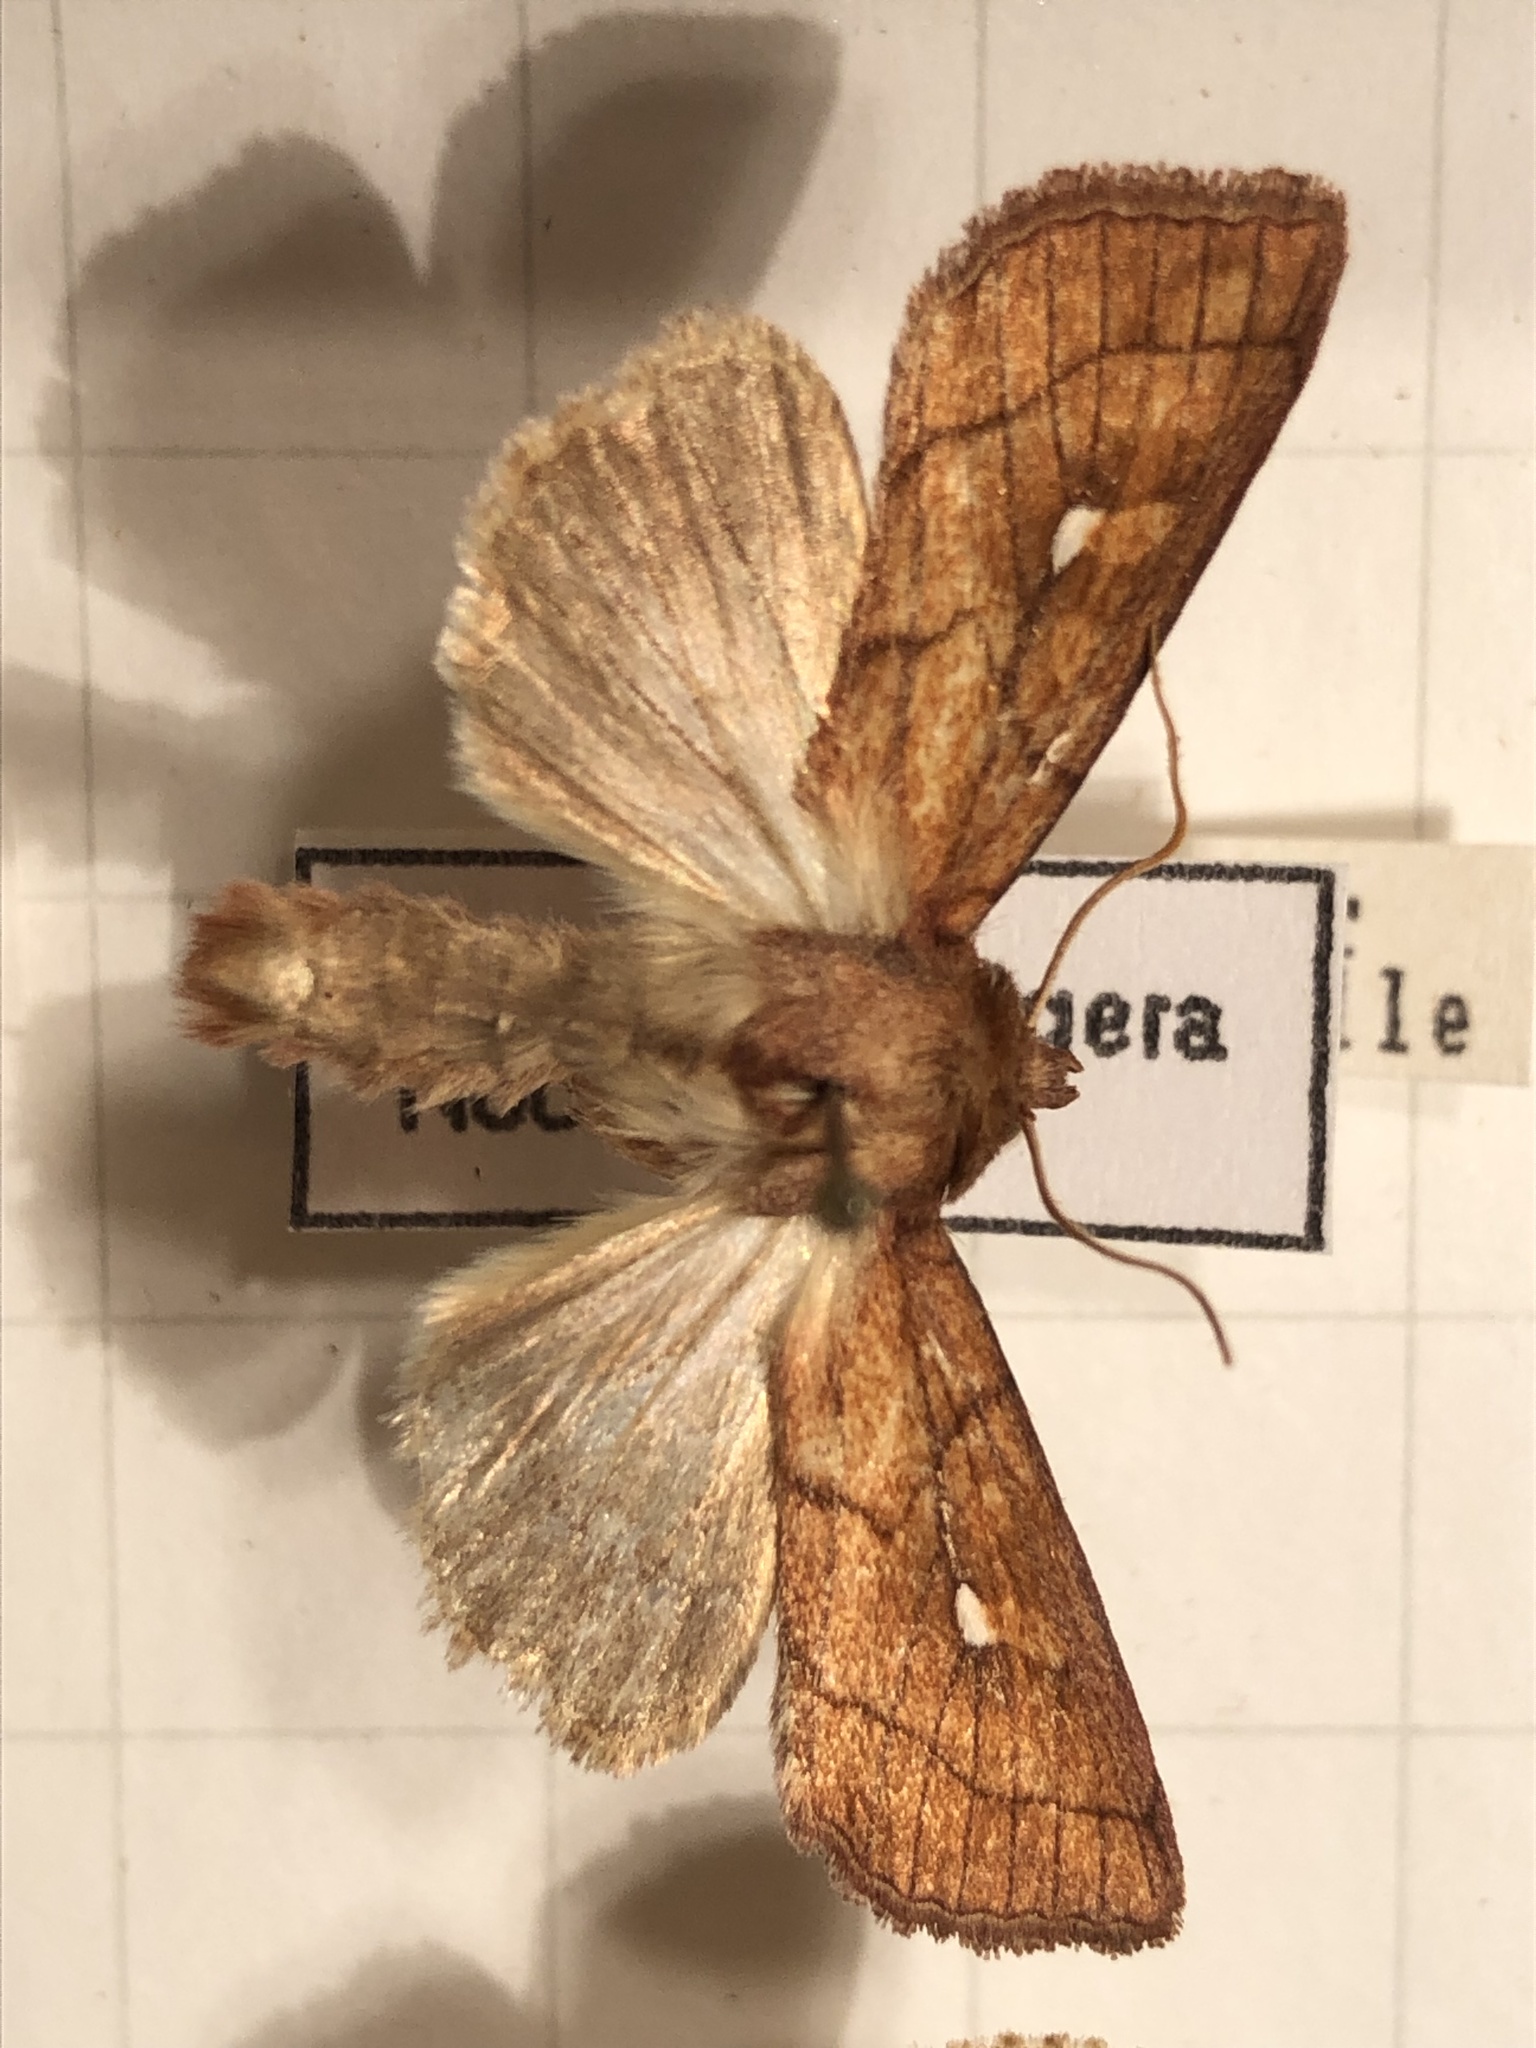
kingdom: Animalia
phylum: Arthropoda
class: Insecta
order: Lepidoptera
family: Noctuidae
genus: Mythimna
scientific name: Mythimna conigera
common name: Brown-line bright-eye
